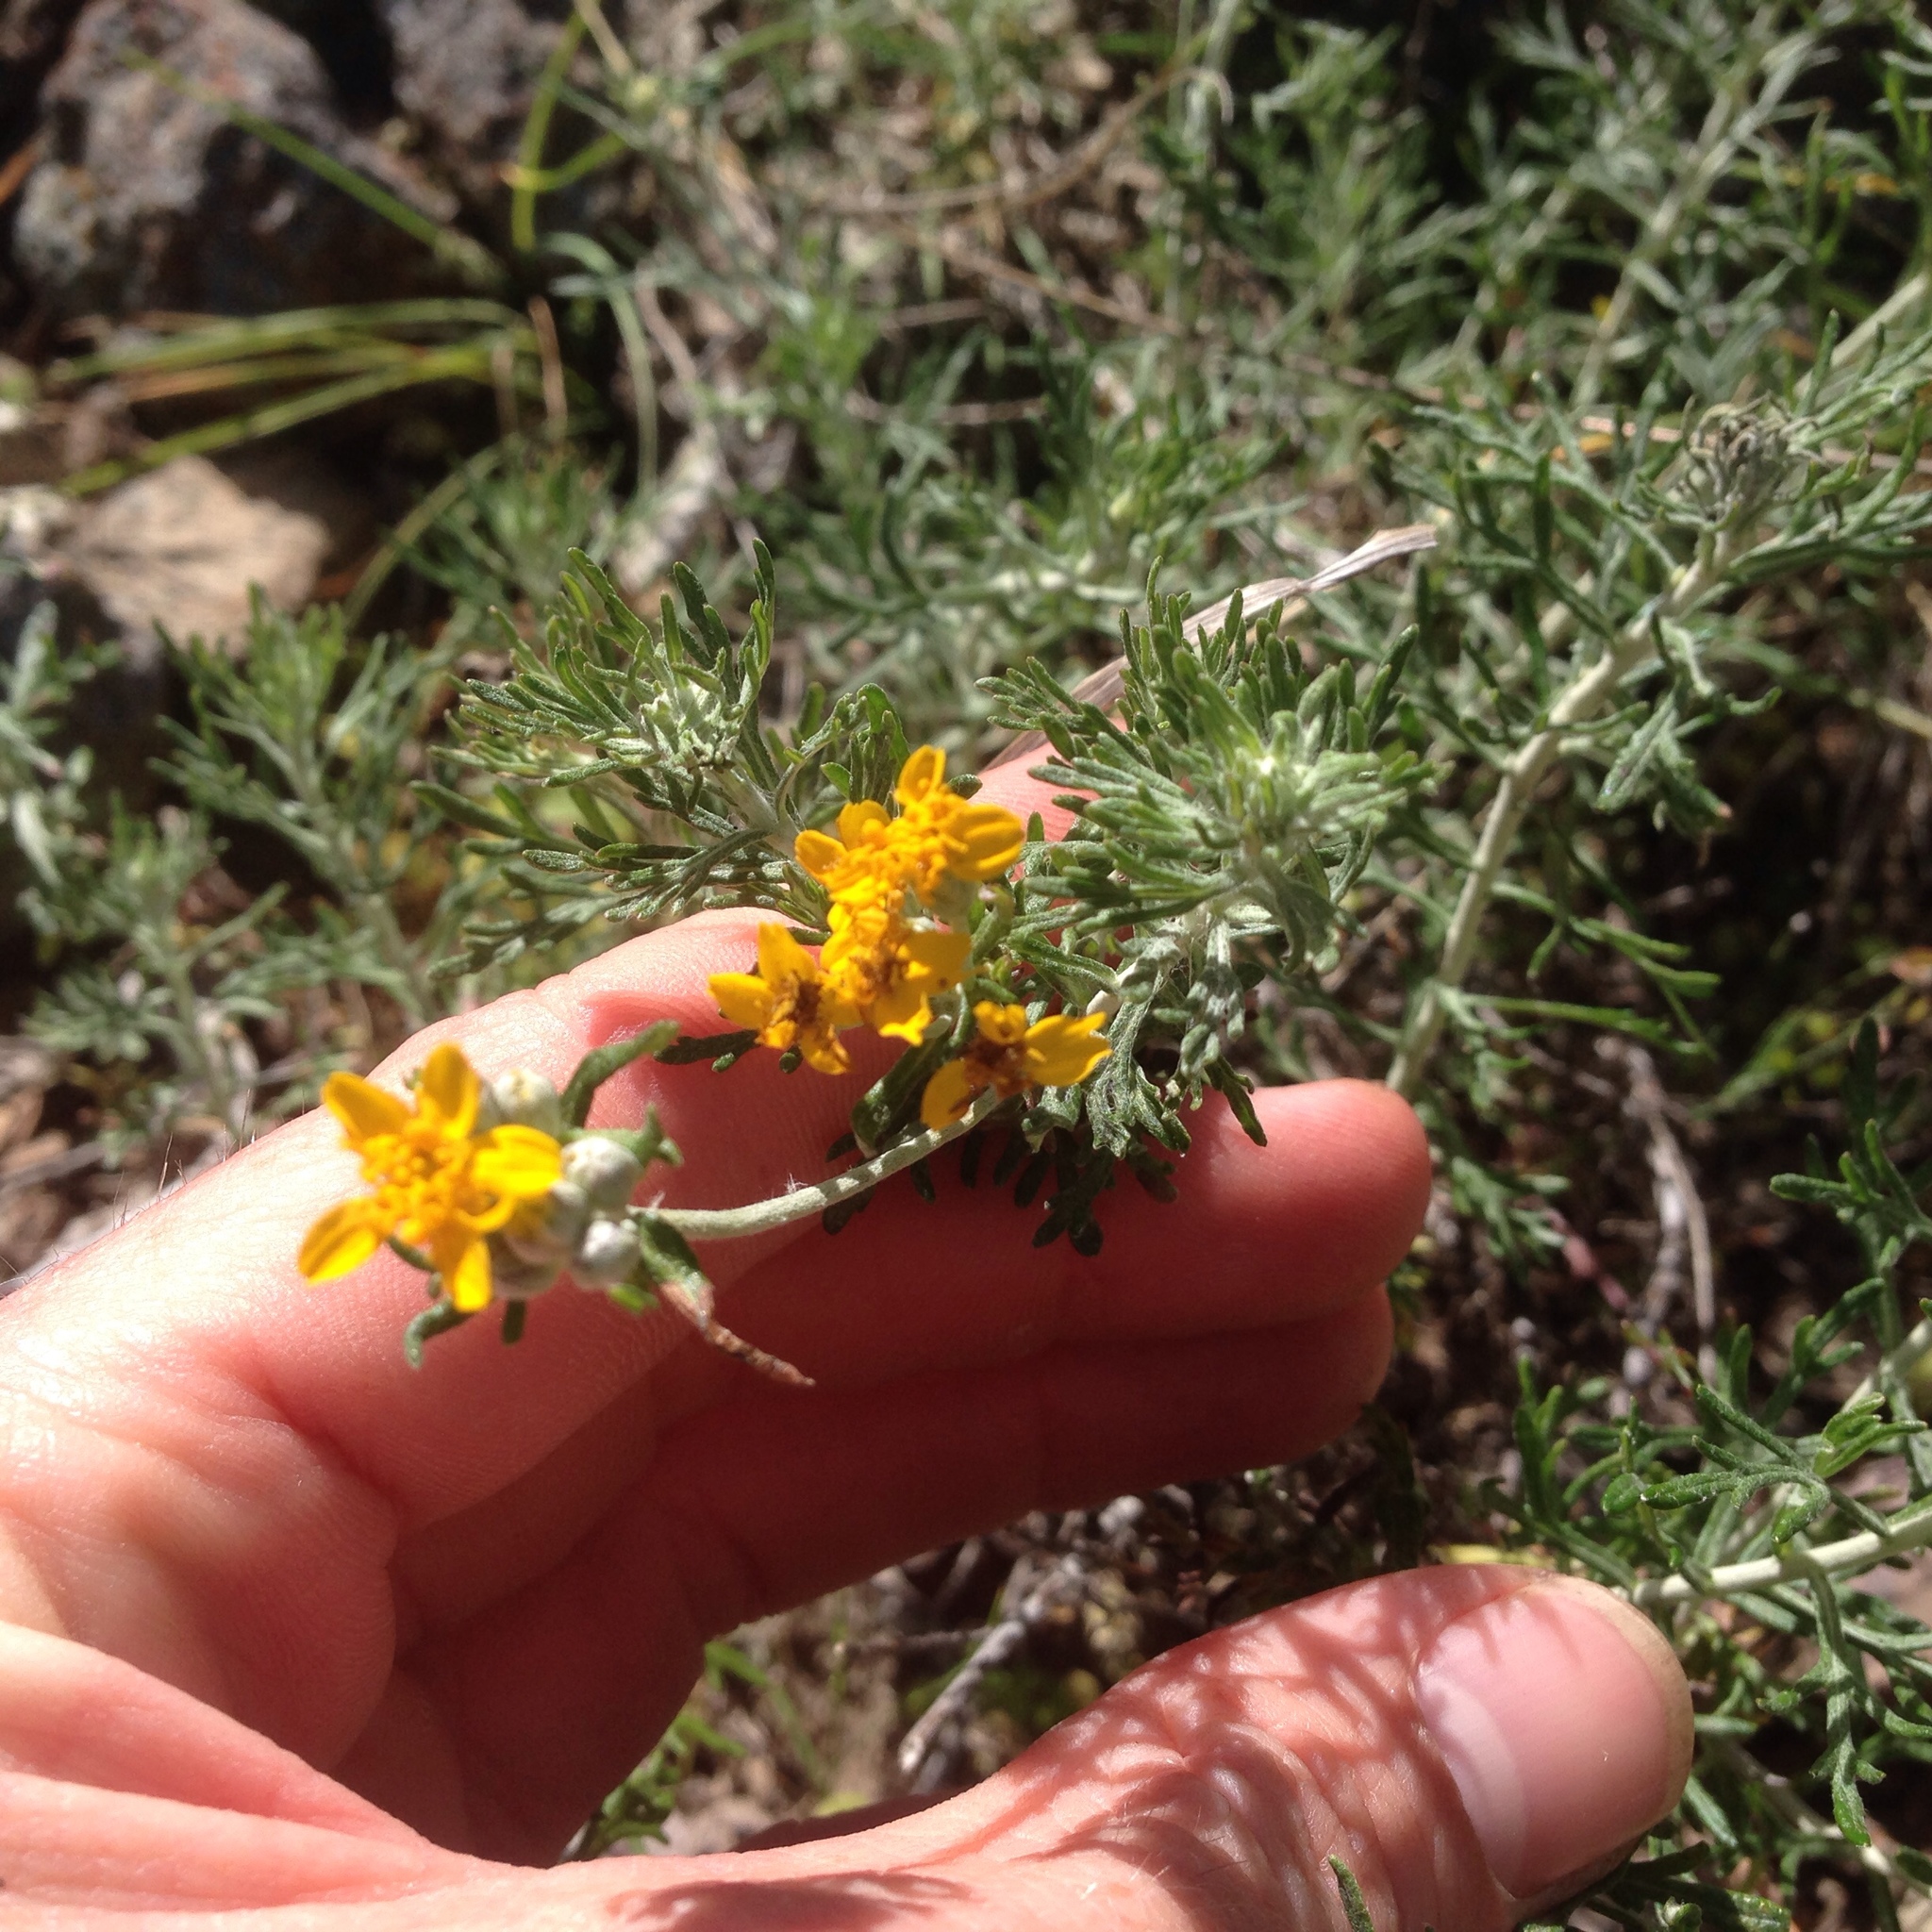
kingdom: Plantae
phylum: Tracheophyta
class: Magnoliopsida
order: Asterales
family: Asteraceae
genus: Eriophyllum
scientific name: Eriophyllum confertiflorum
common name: Golden-yarrow
